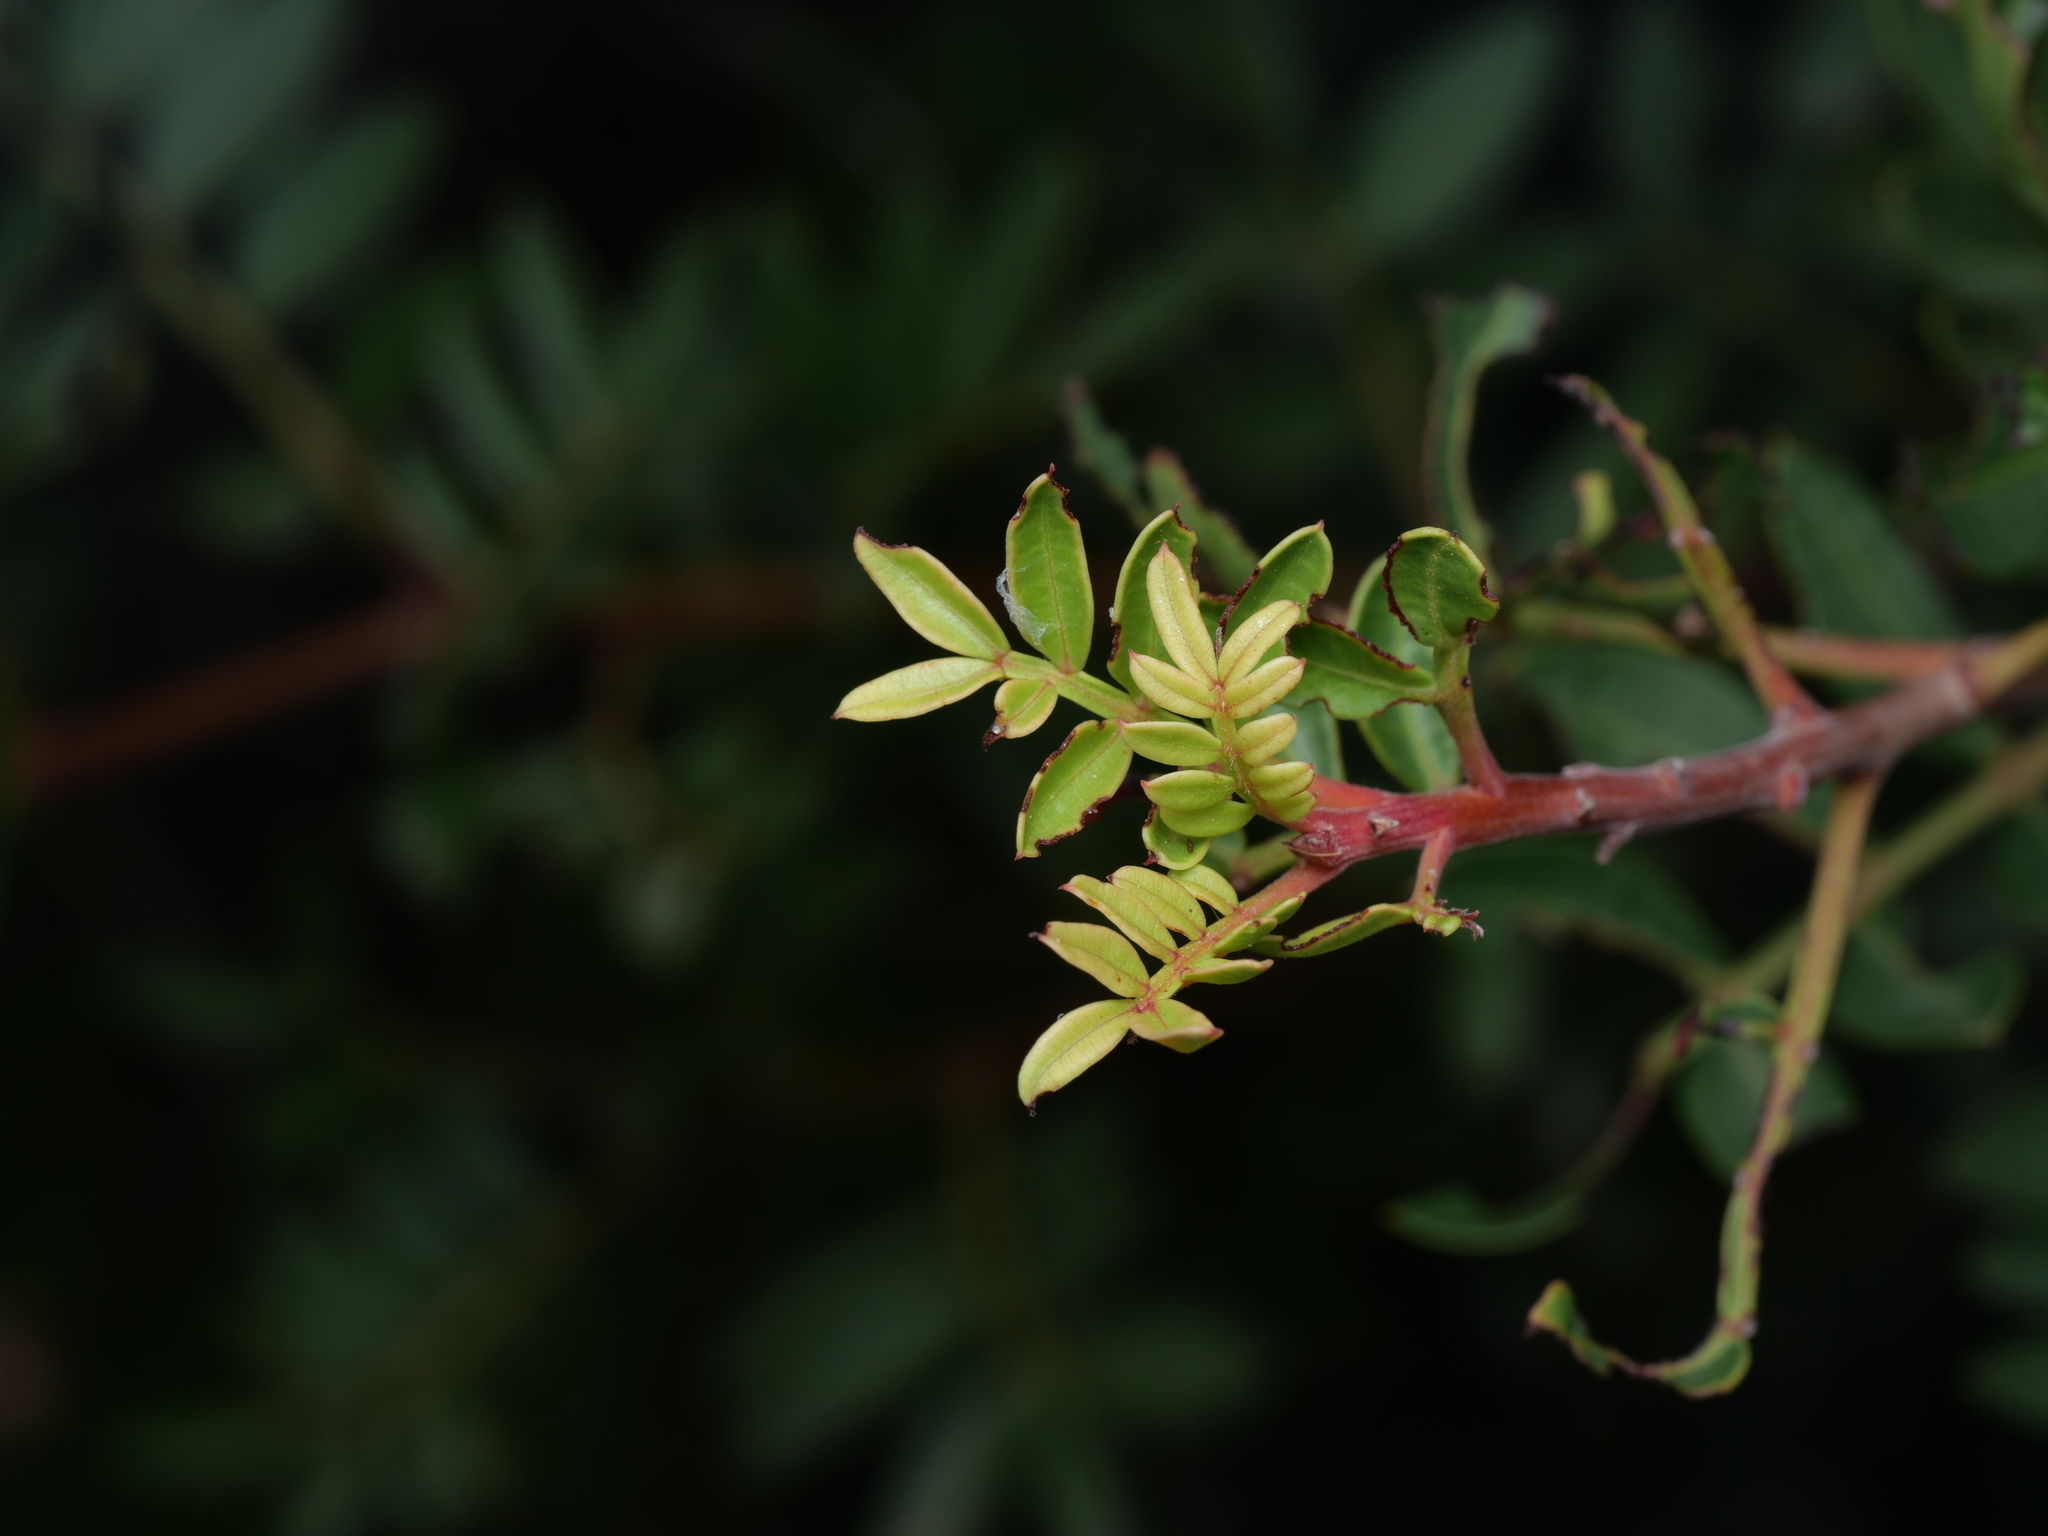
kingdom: Plantae
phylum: Tracheophyta
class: Magnoliopsida
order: Sapindales
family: Anacardiaceae
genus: Pistacia
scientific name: Pistacia lentiscus
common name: Lentisk
